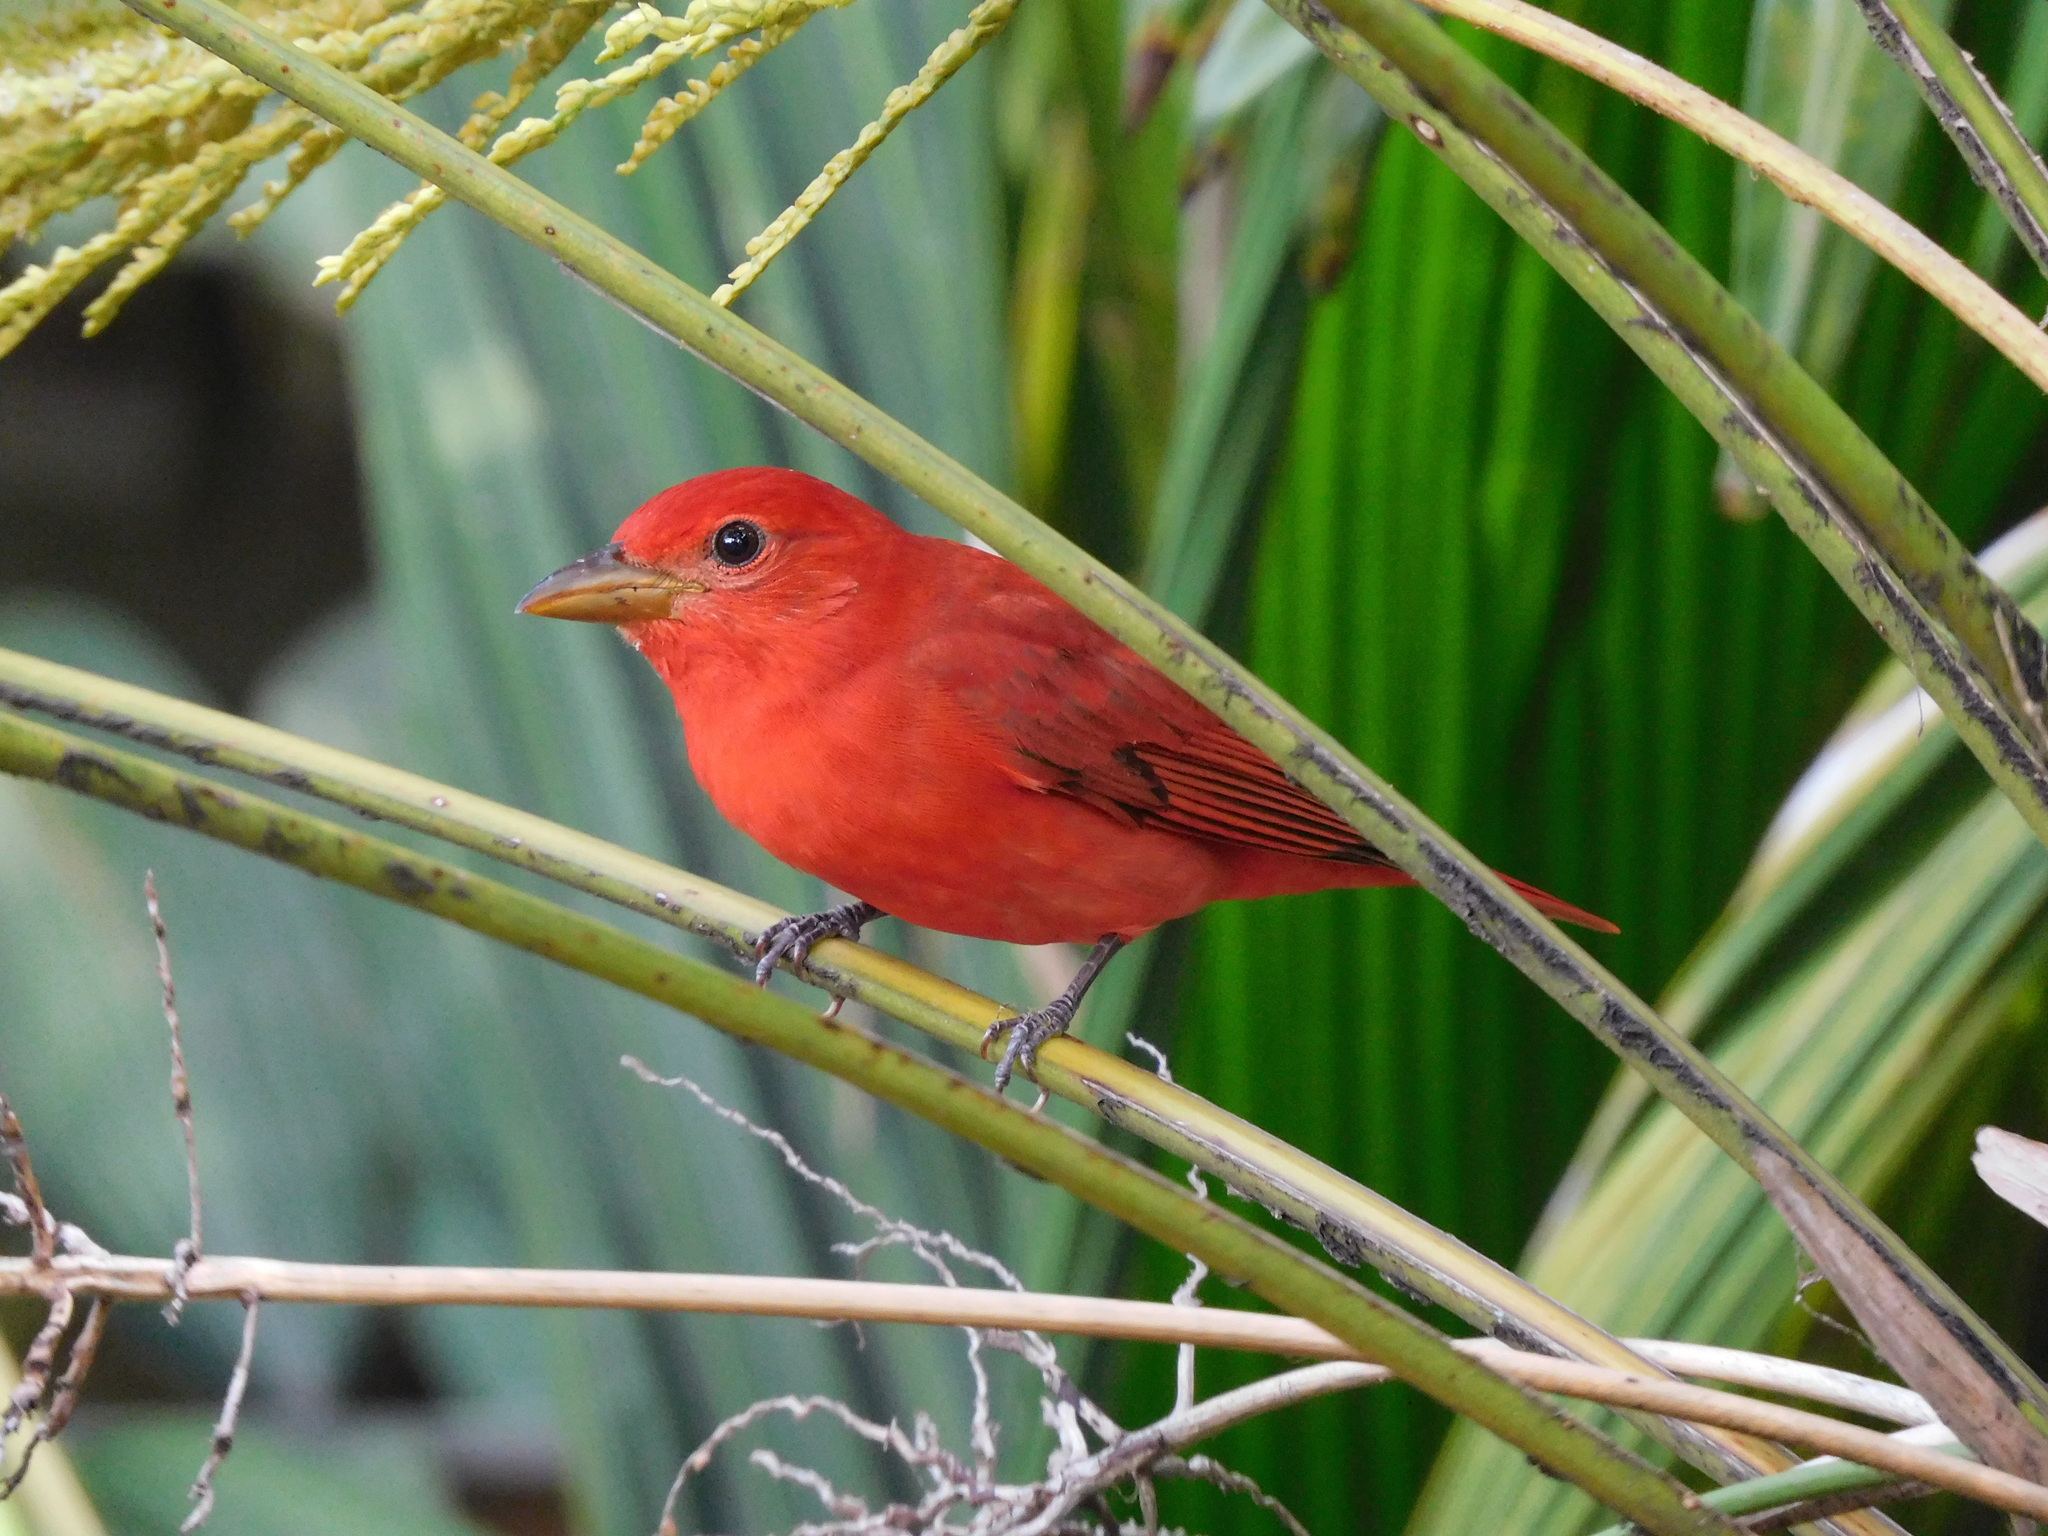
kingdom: Animalia
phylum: Chordata
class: Aves
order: Passeriformes
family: Cardinalidae
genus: Piranga
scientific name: Piranga rubra
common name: Summer tanager
